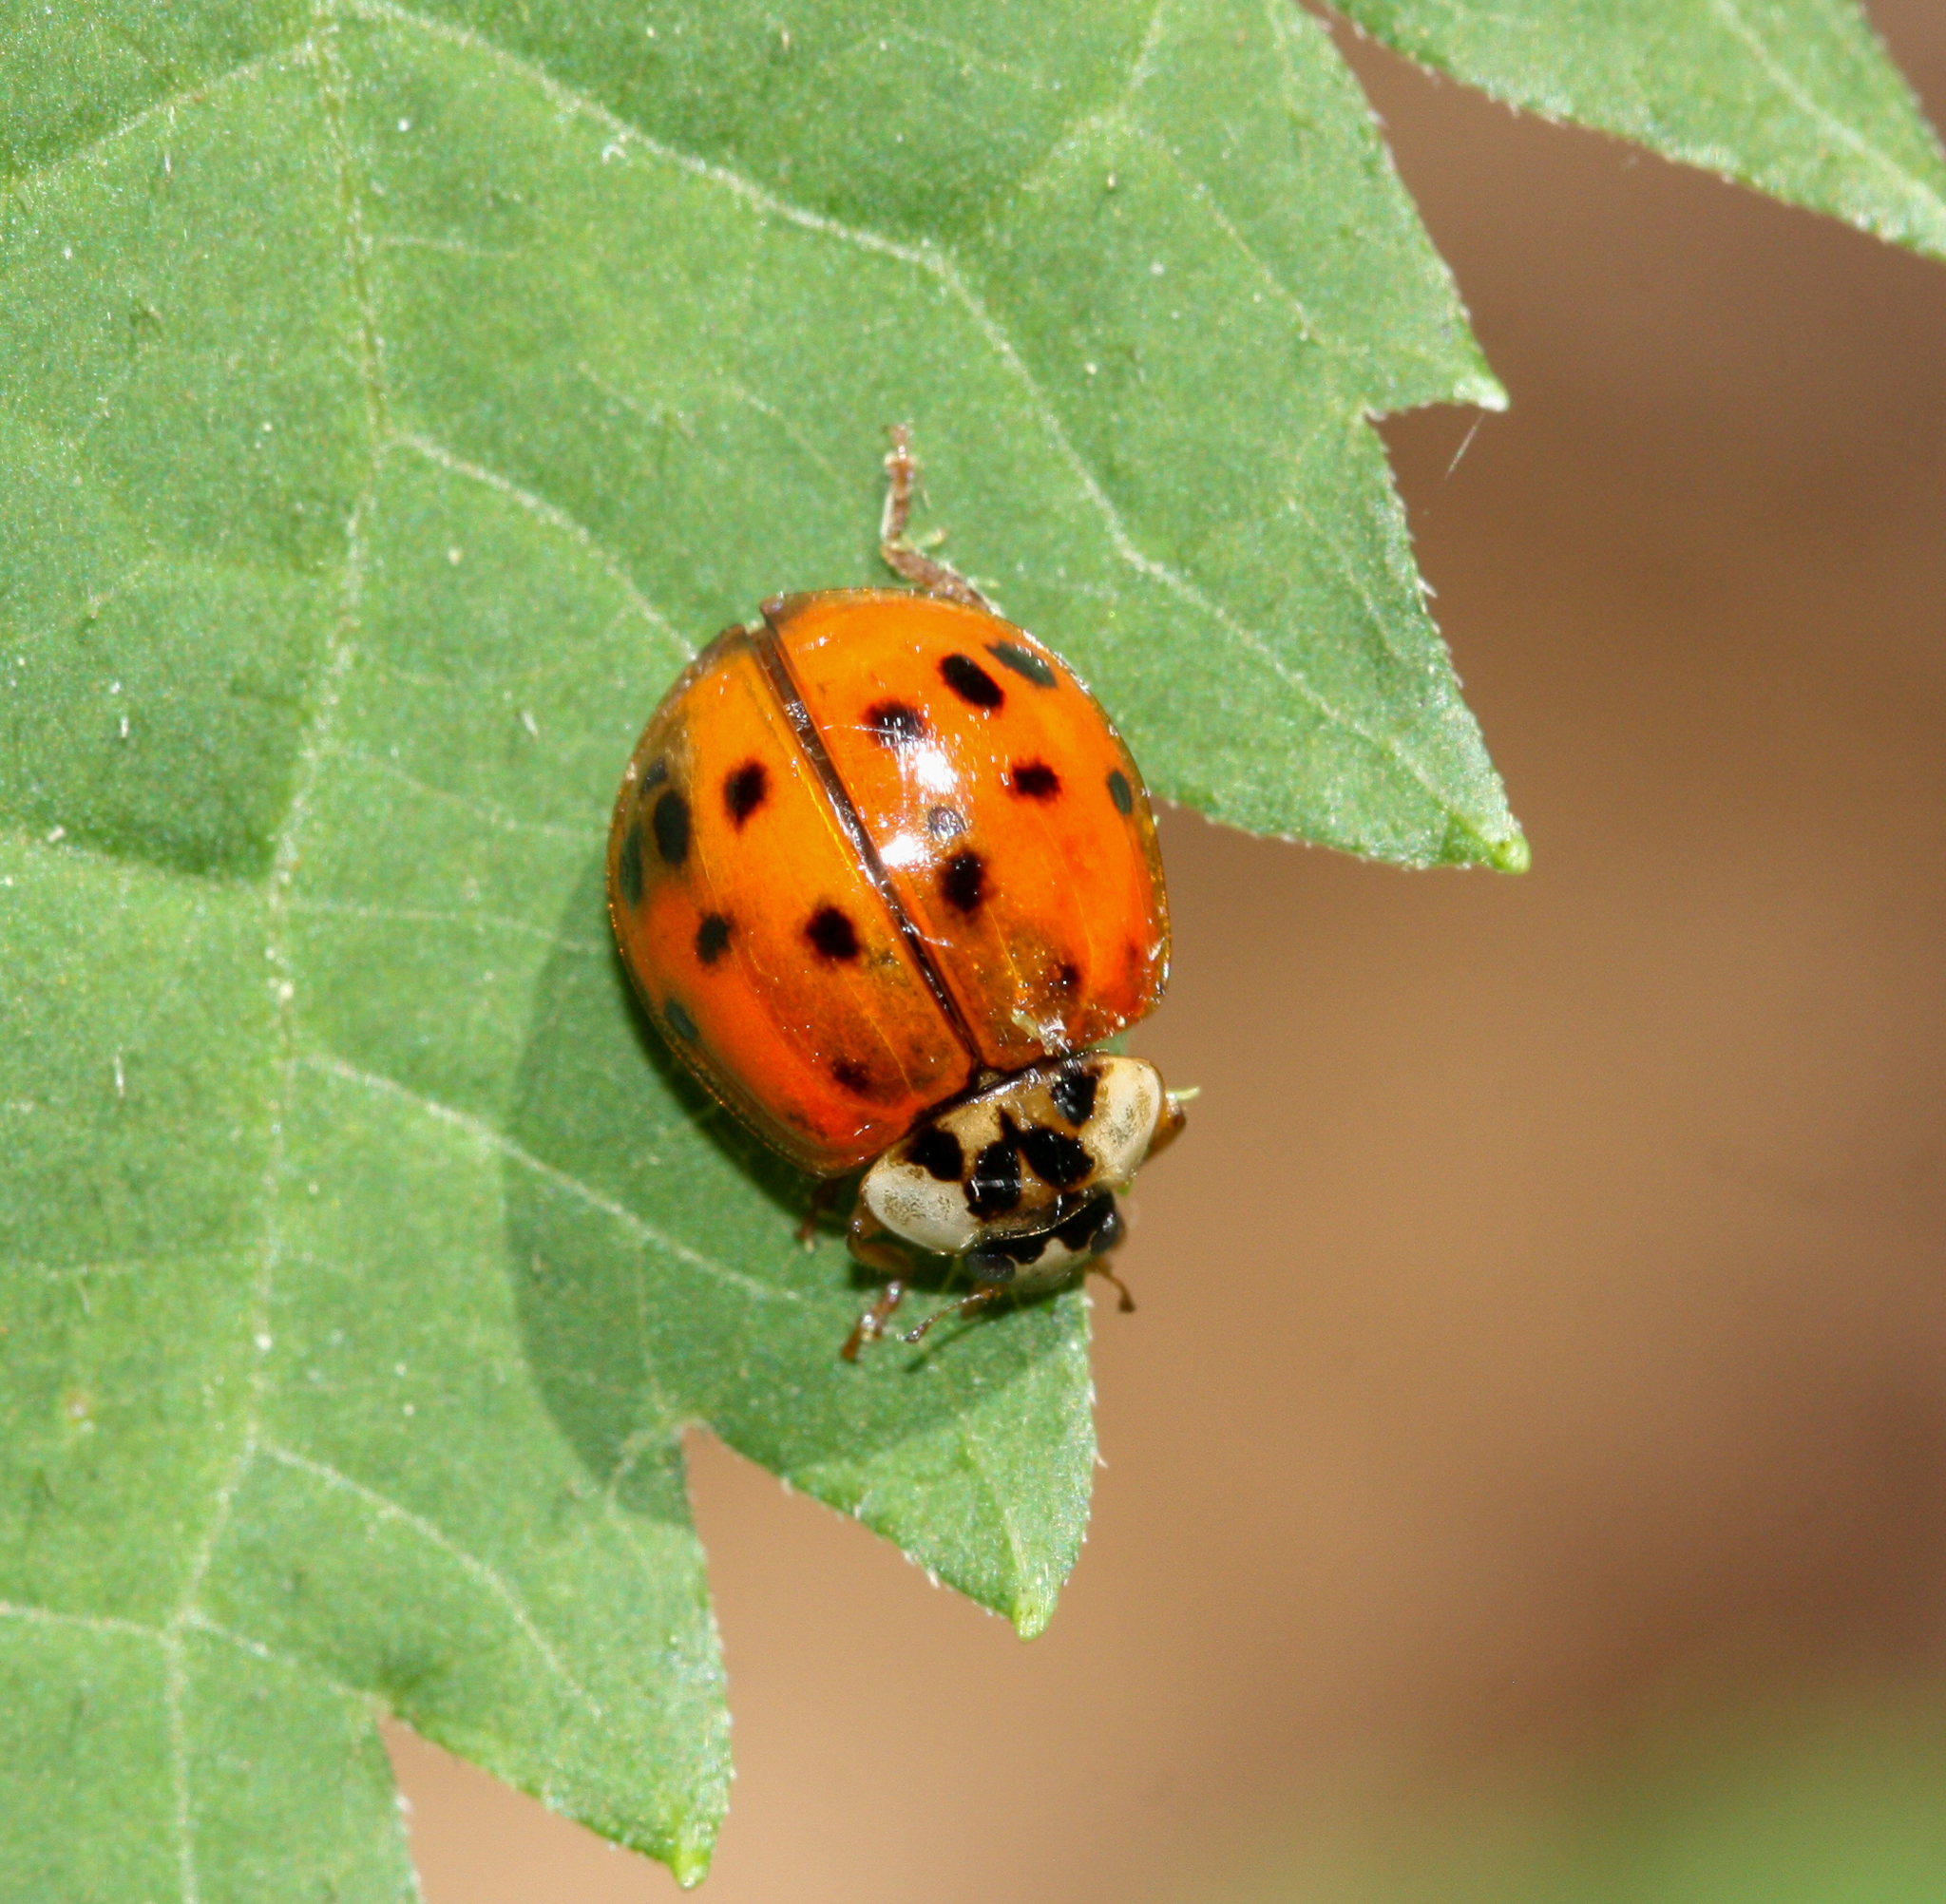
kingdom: Animalia
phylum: Arthropoda
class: Insecta
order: Coleoptera
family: Coccinellidae
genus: Harmonia
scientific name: Harmonia axyridis
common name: Harlequin ladybird
